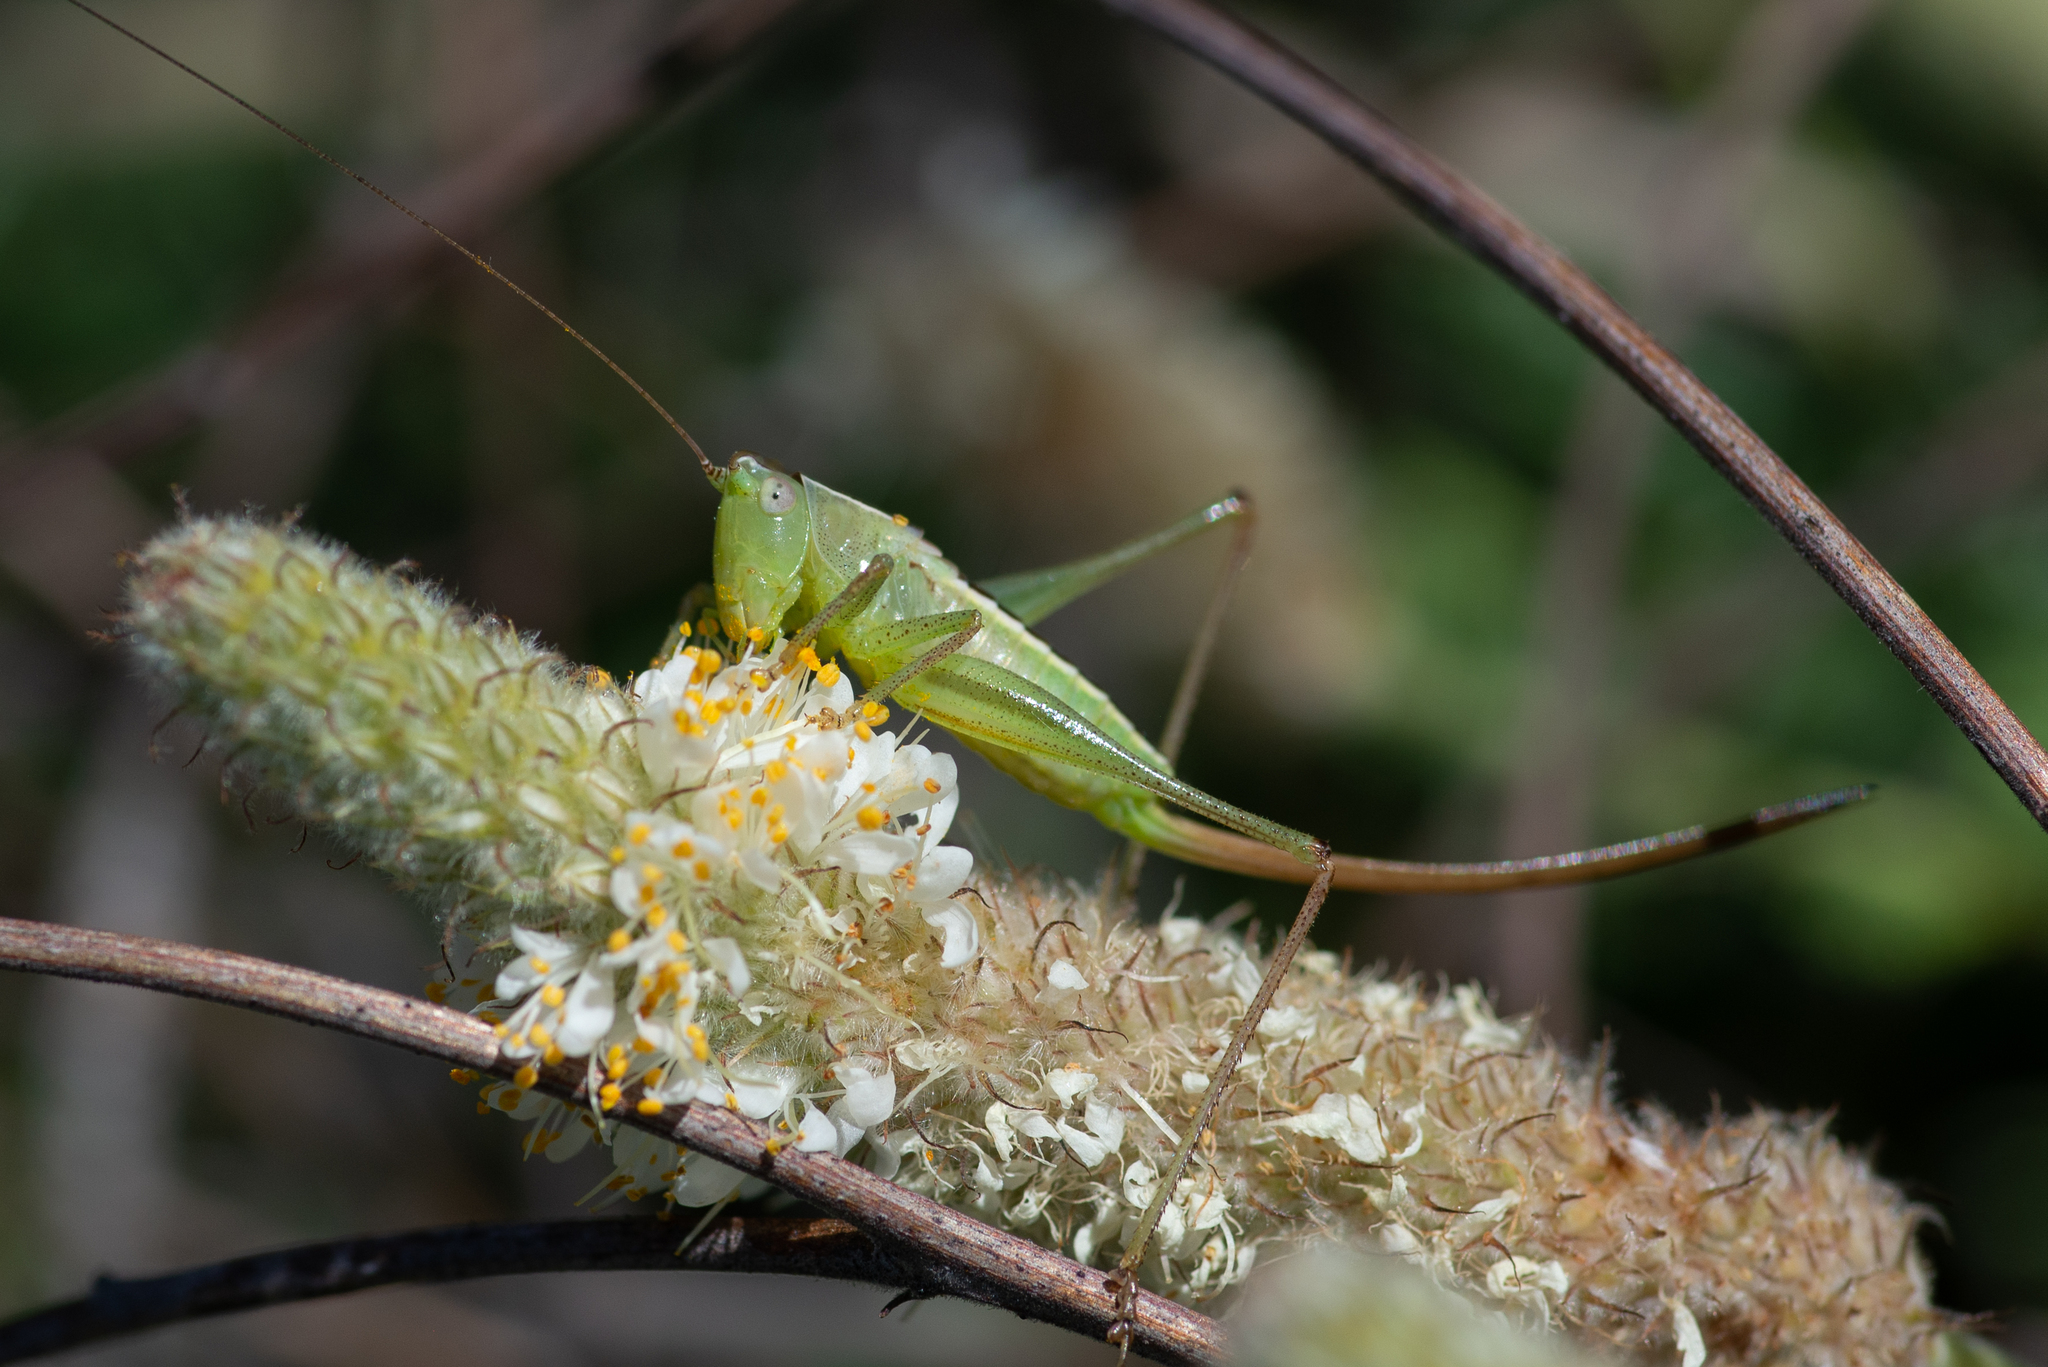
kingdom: Animalia
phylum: Arthropoda
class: Insecta
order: Orthoptera
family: Tettigoniidae
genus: Conocephalus
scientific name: Conocephalus strictus
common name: Straight-lanced katydid
